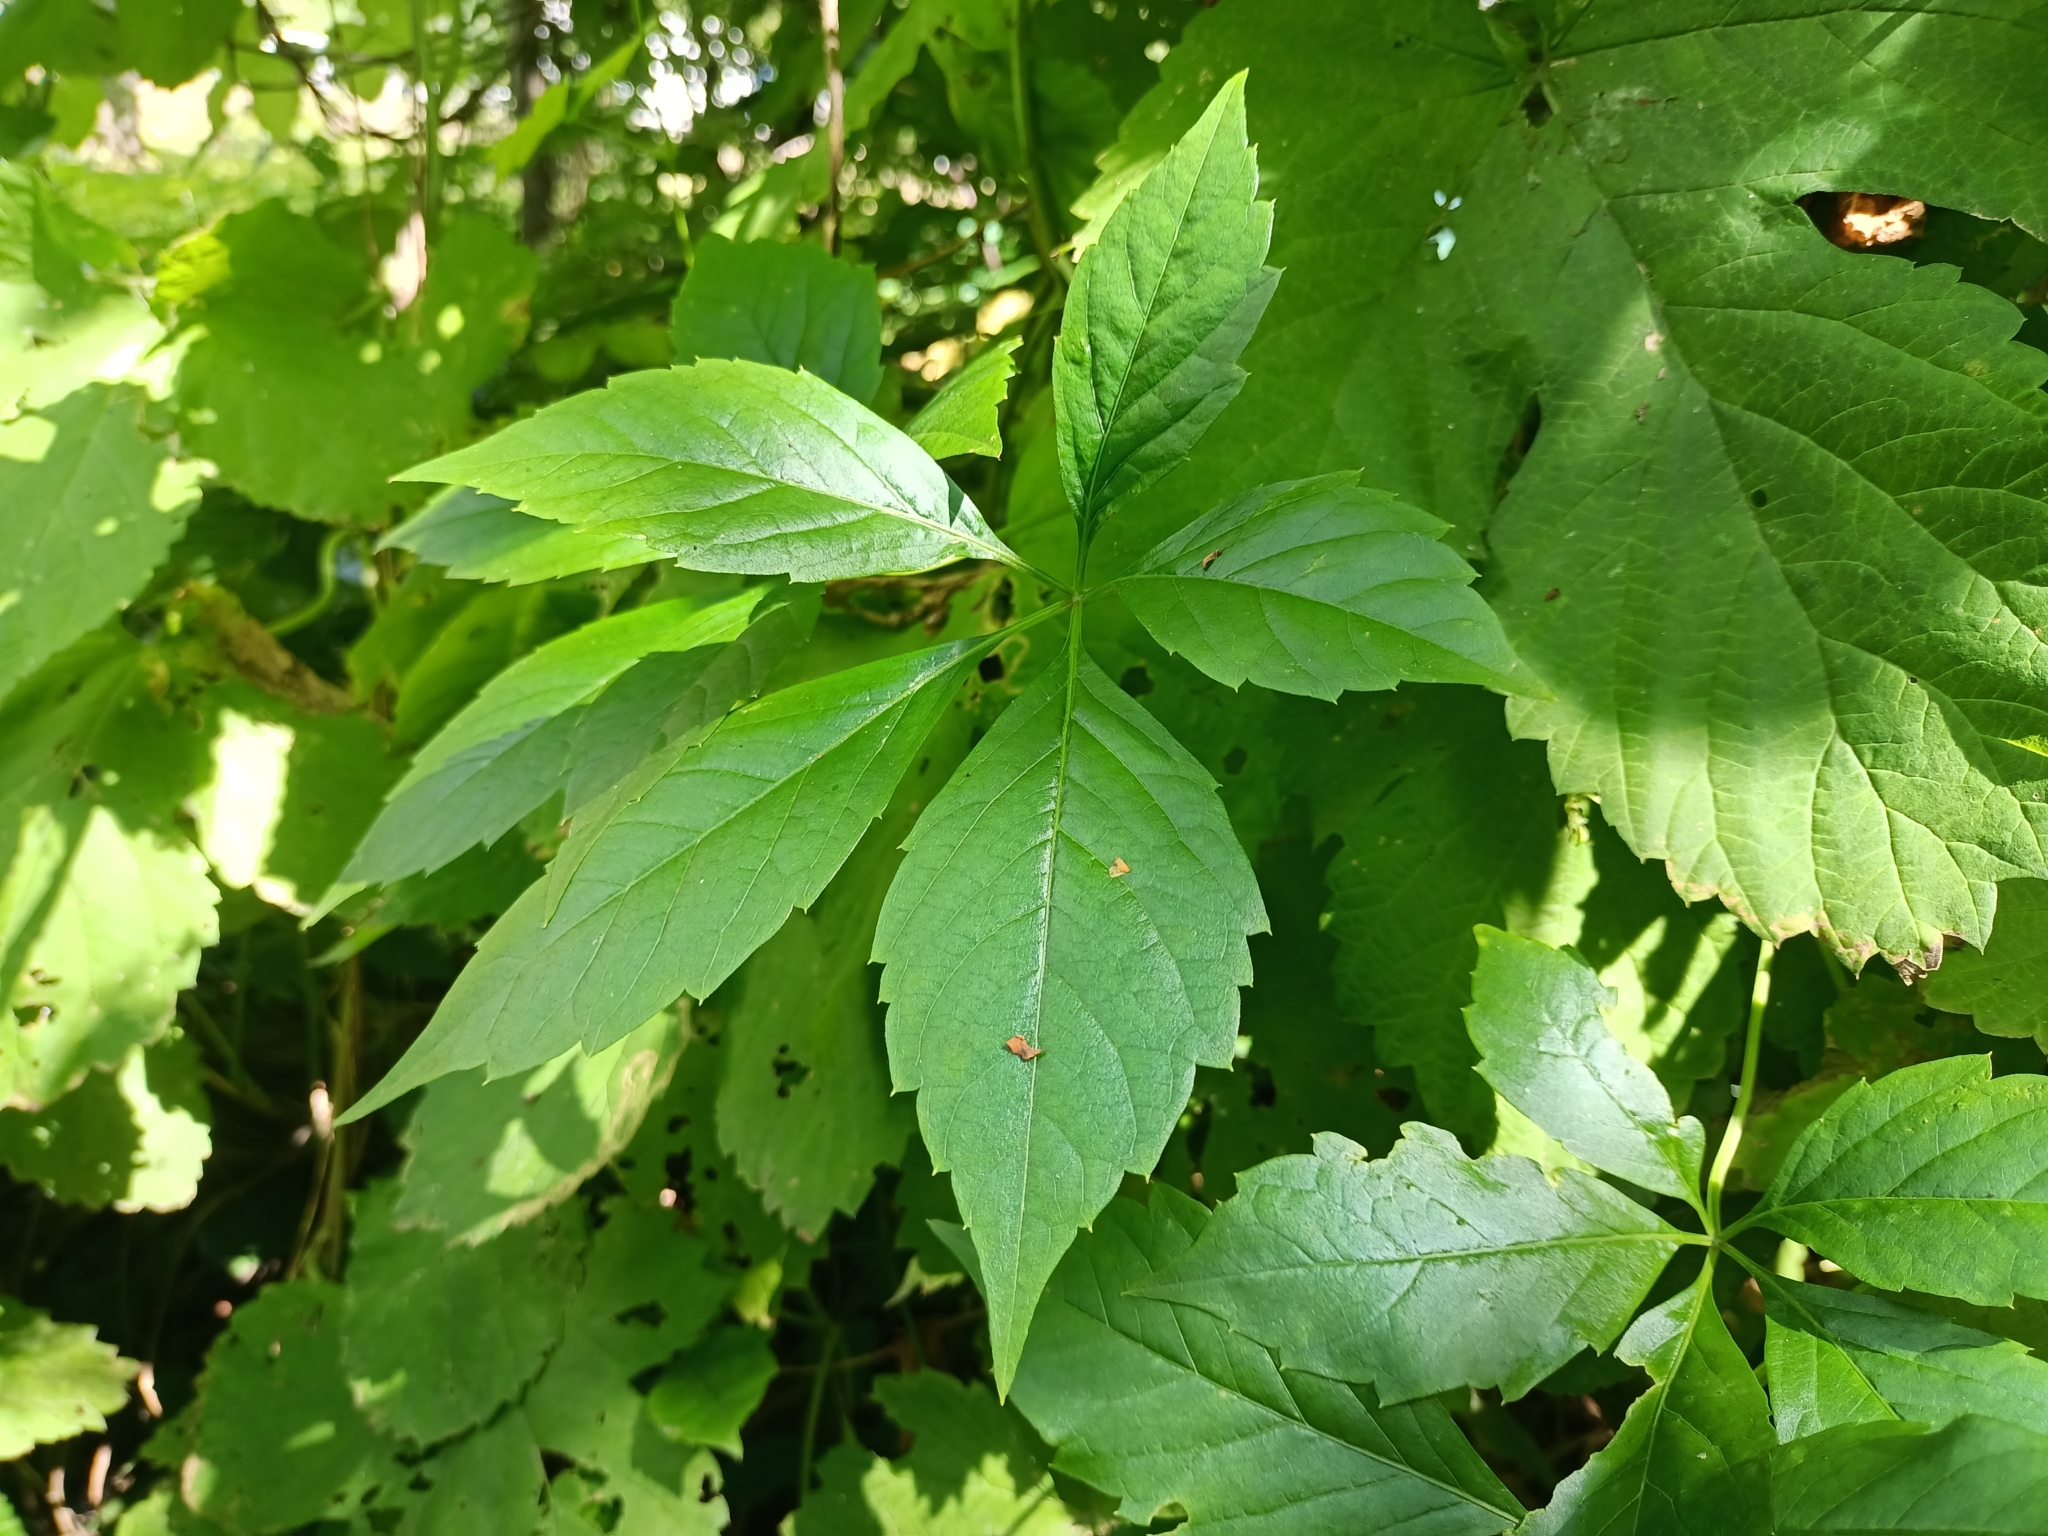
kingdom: Plantae
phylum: Tracheophyta
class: Magnoliopsida
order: Vitales
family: Vitaceae
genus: Parthenocissus
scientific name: Parthenocissus inserta
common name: False virginia-creeper
